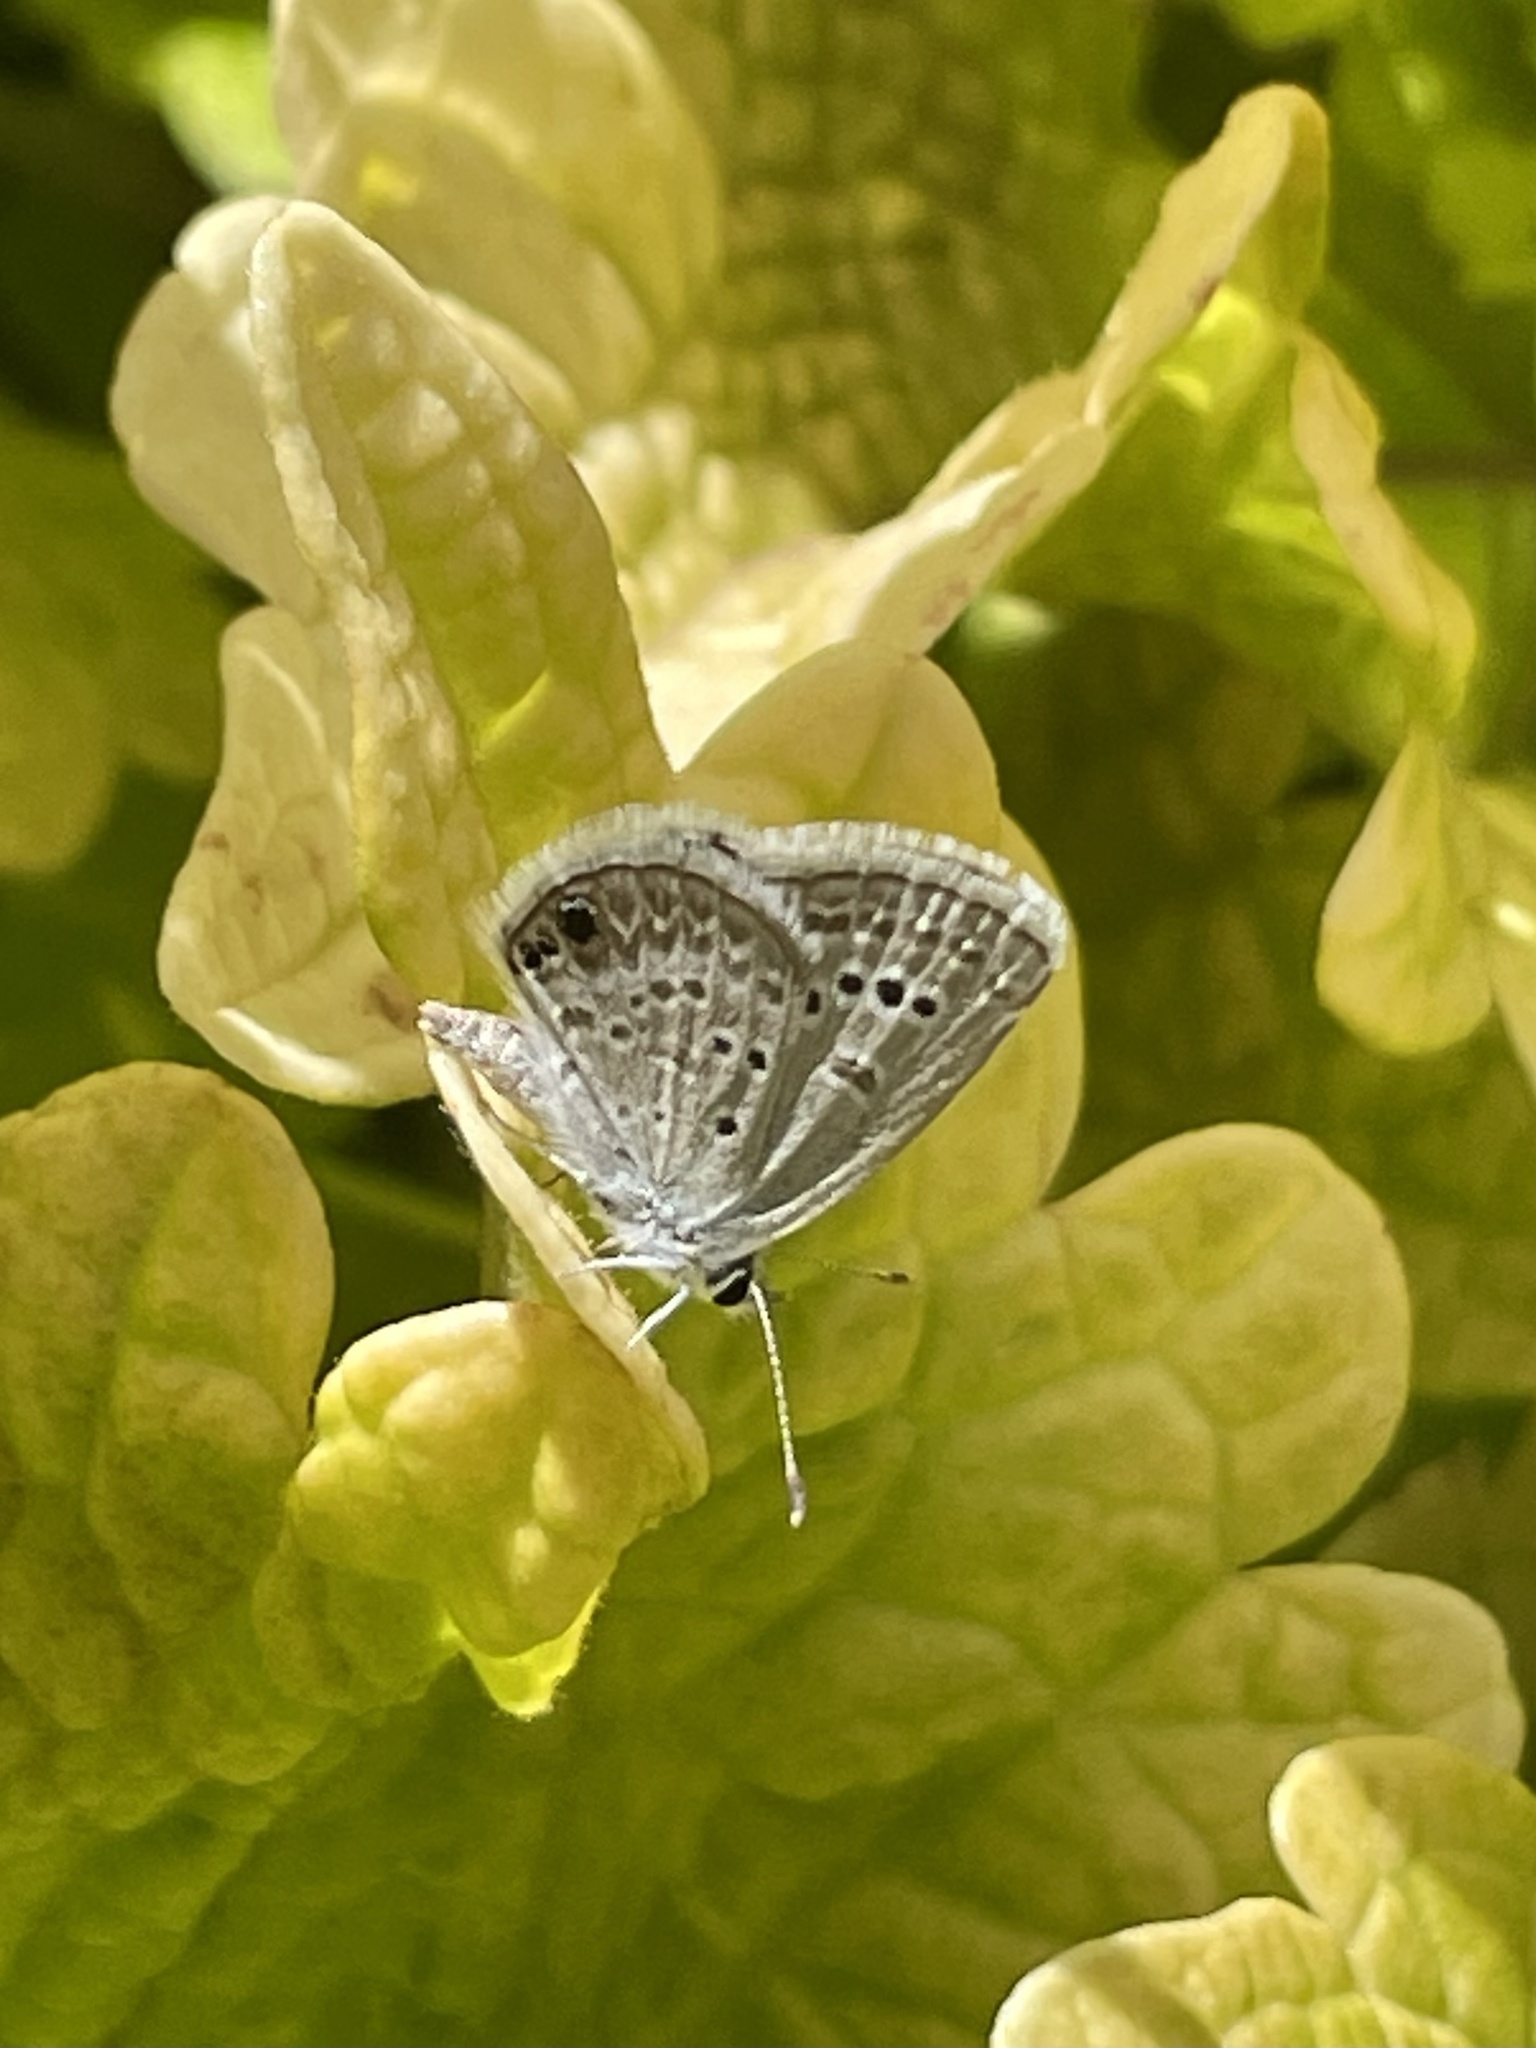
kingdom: Animalia
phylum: Arthropoda
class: Insecta
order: Lepidoptera
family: Lycaenidae
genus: Echinargus
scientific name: Echinargus isola
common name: Reakirt's blue
